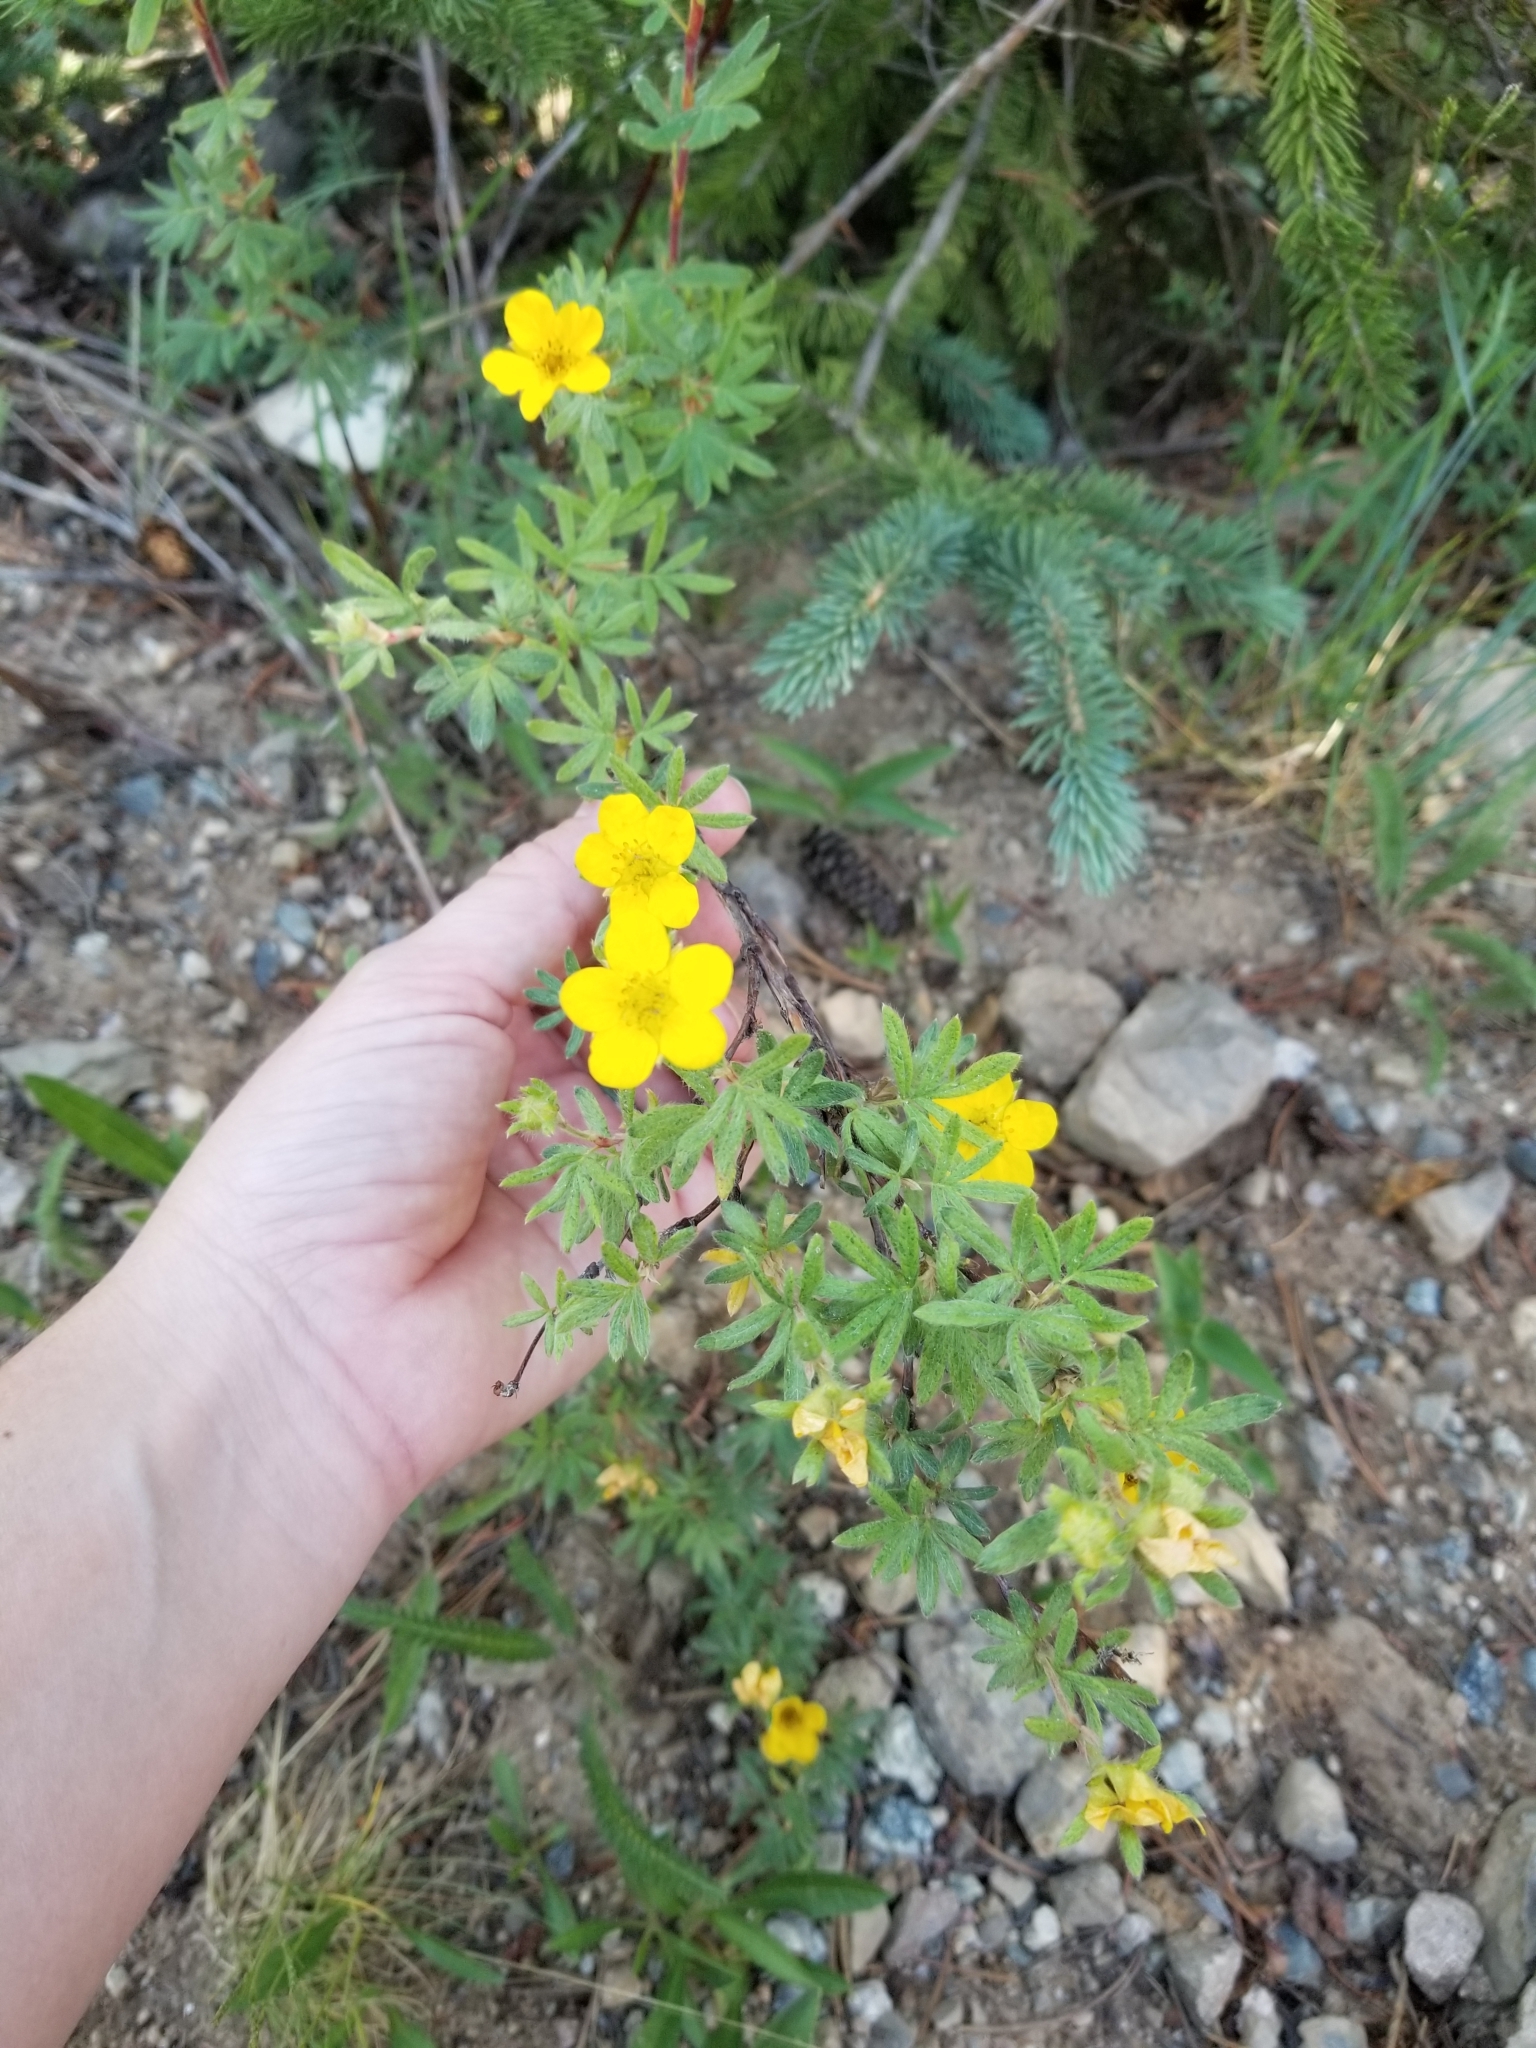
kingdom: Plantae
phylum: Tracheophyta
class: Magnoliopsida
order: Rosales
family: Rosaceae
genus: Dasiphora
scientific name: Dasiphora fruticosa
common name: Shrubby cinquefoil
